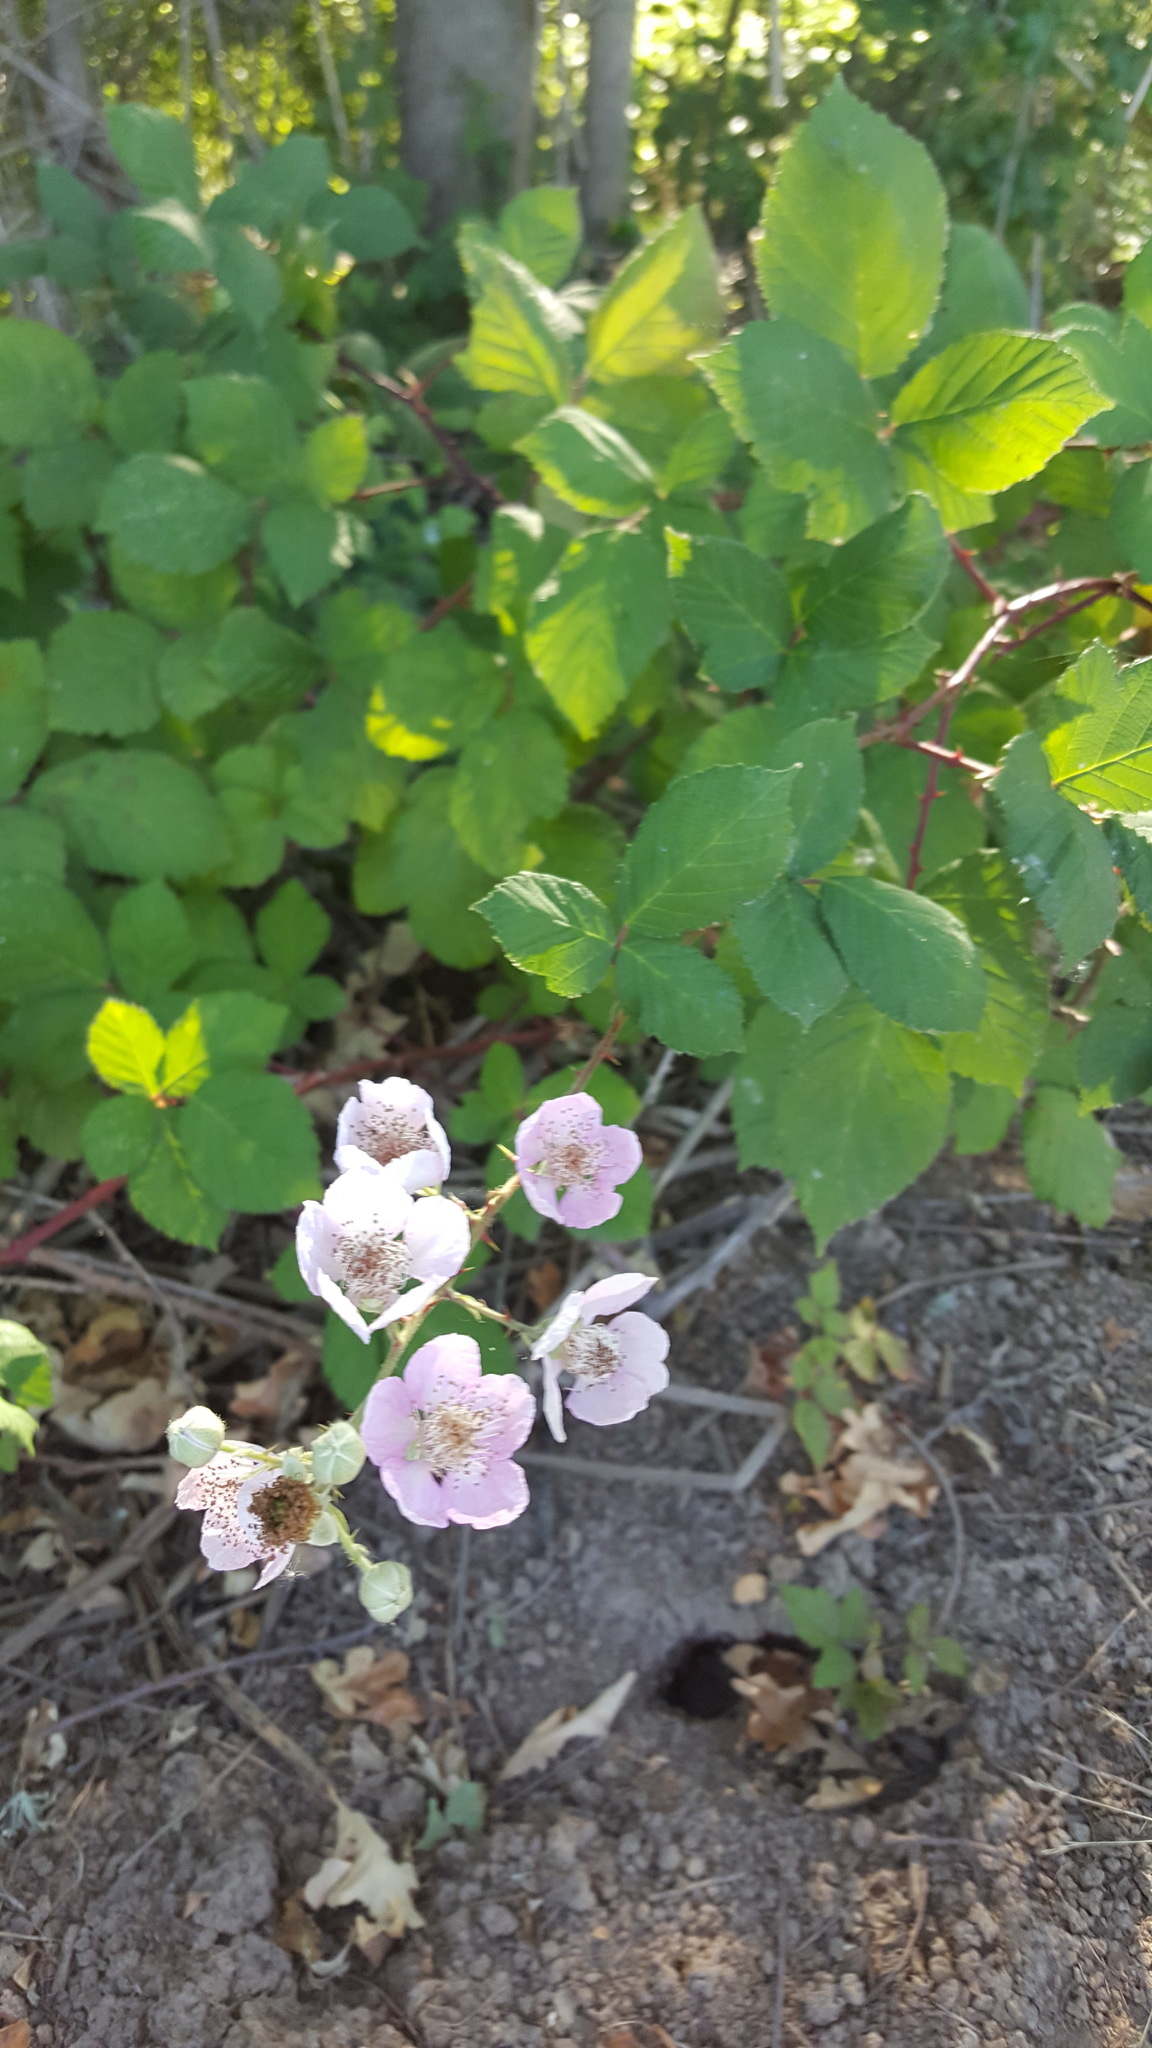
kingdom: Plantae
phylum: Tracheophyta
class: Magnoliopsida
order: Rosales
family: Rosaceae
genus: Rubus
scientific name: Rubus armeniacus
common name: Himalayan blackberry
